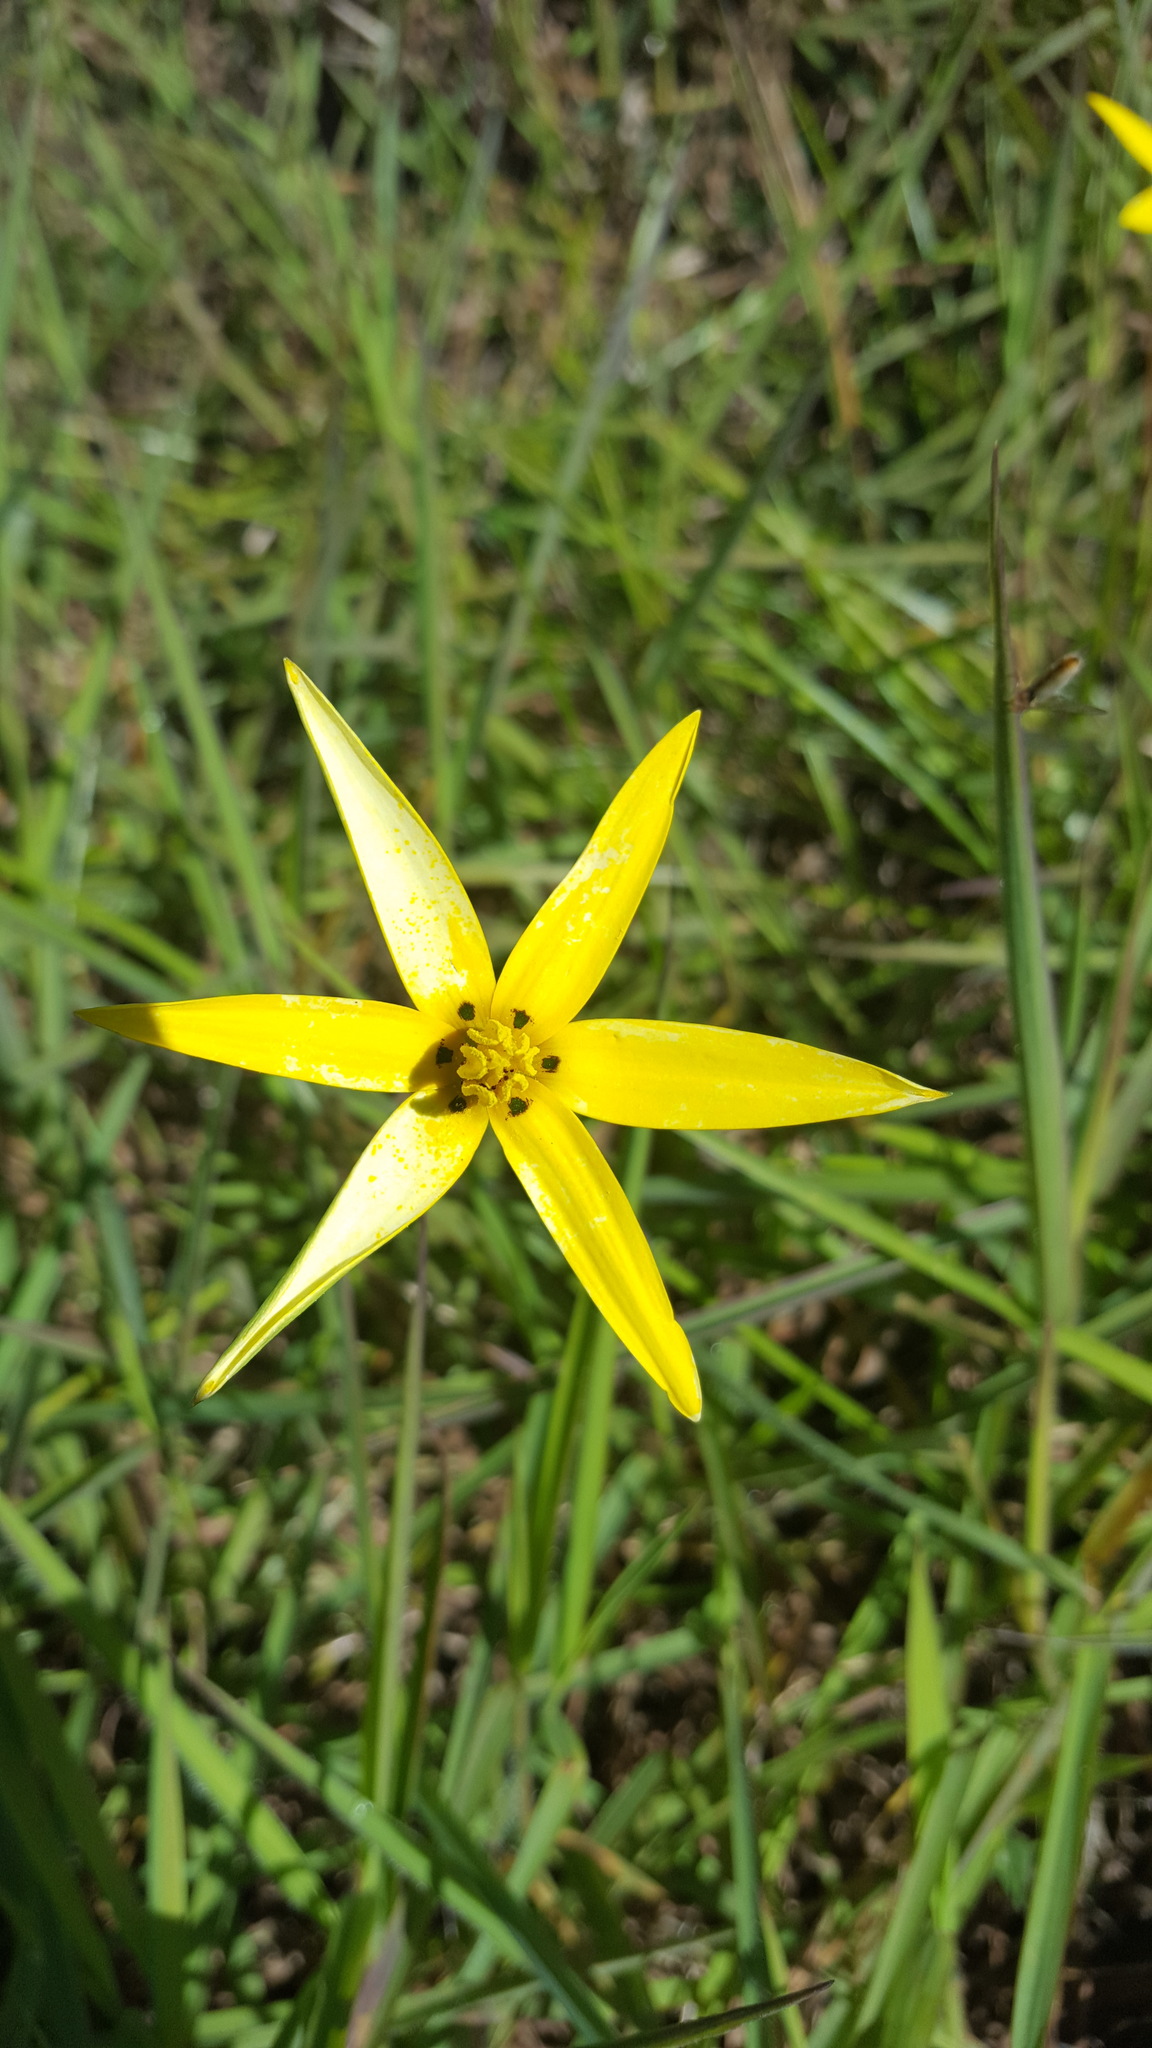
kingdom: Plantae
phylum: Tracheophyta
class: Liliopsida
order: Asparagales
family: Hypoxidaceae
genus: Pauridia
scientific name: Pauridia capensis
